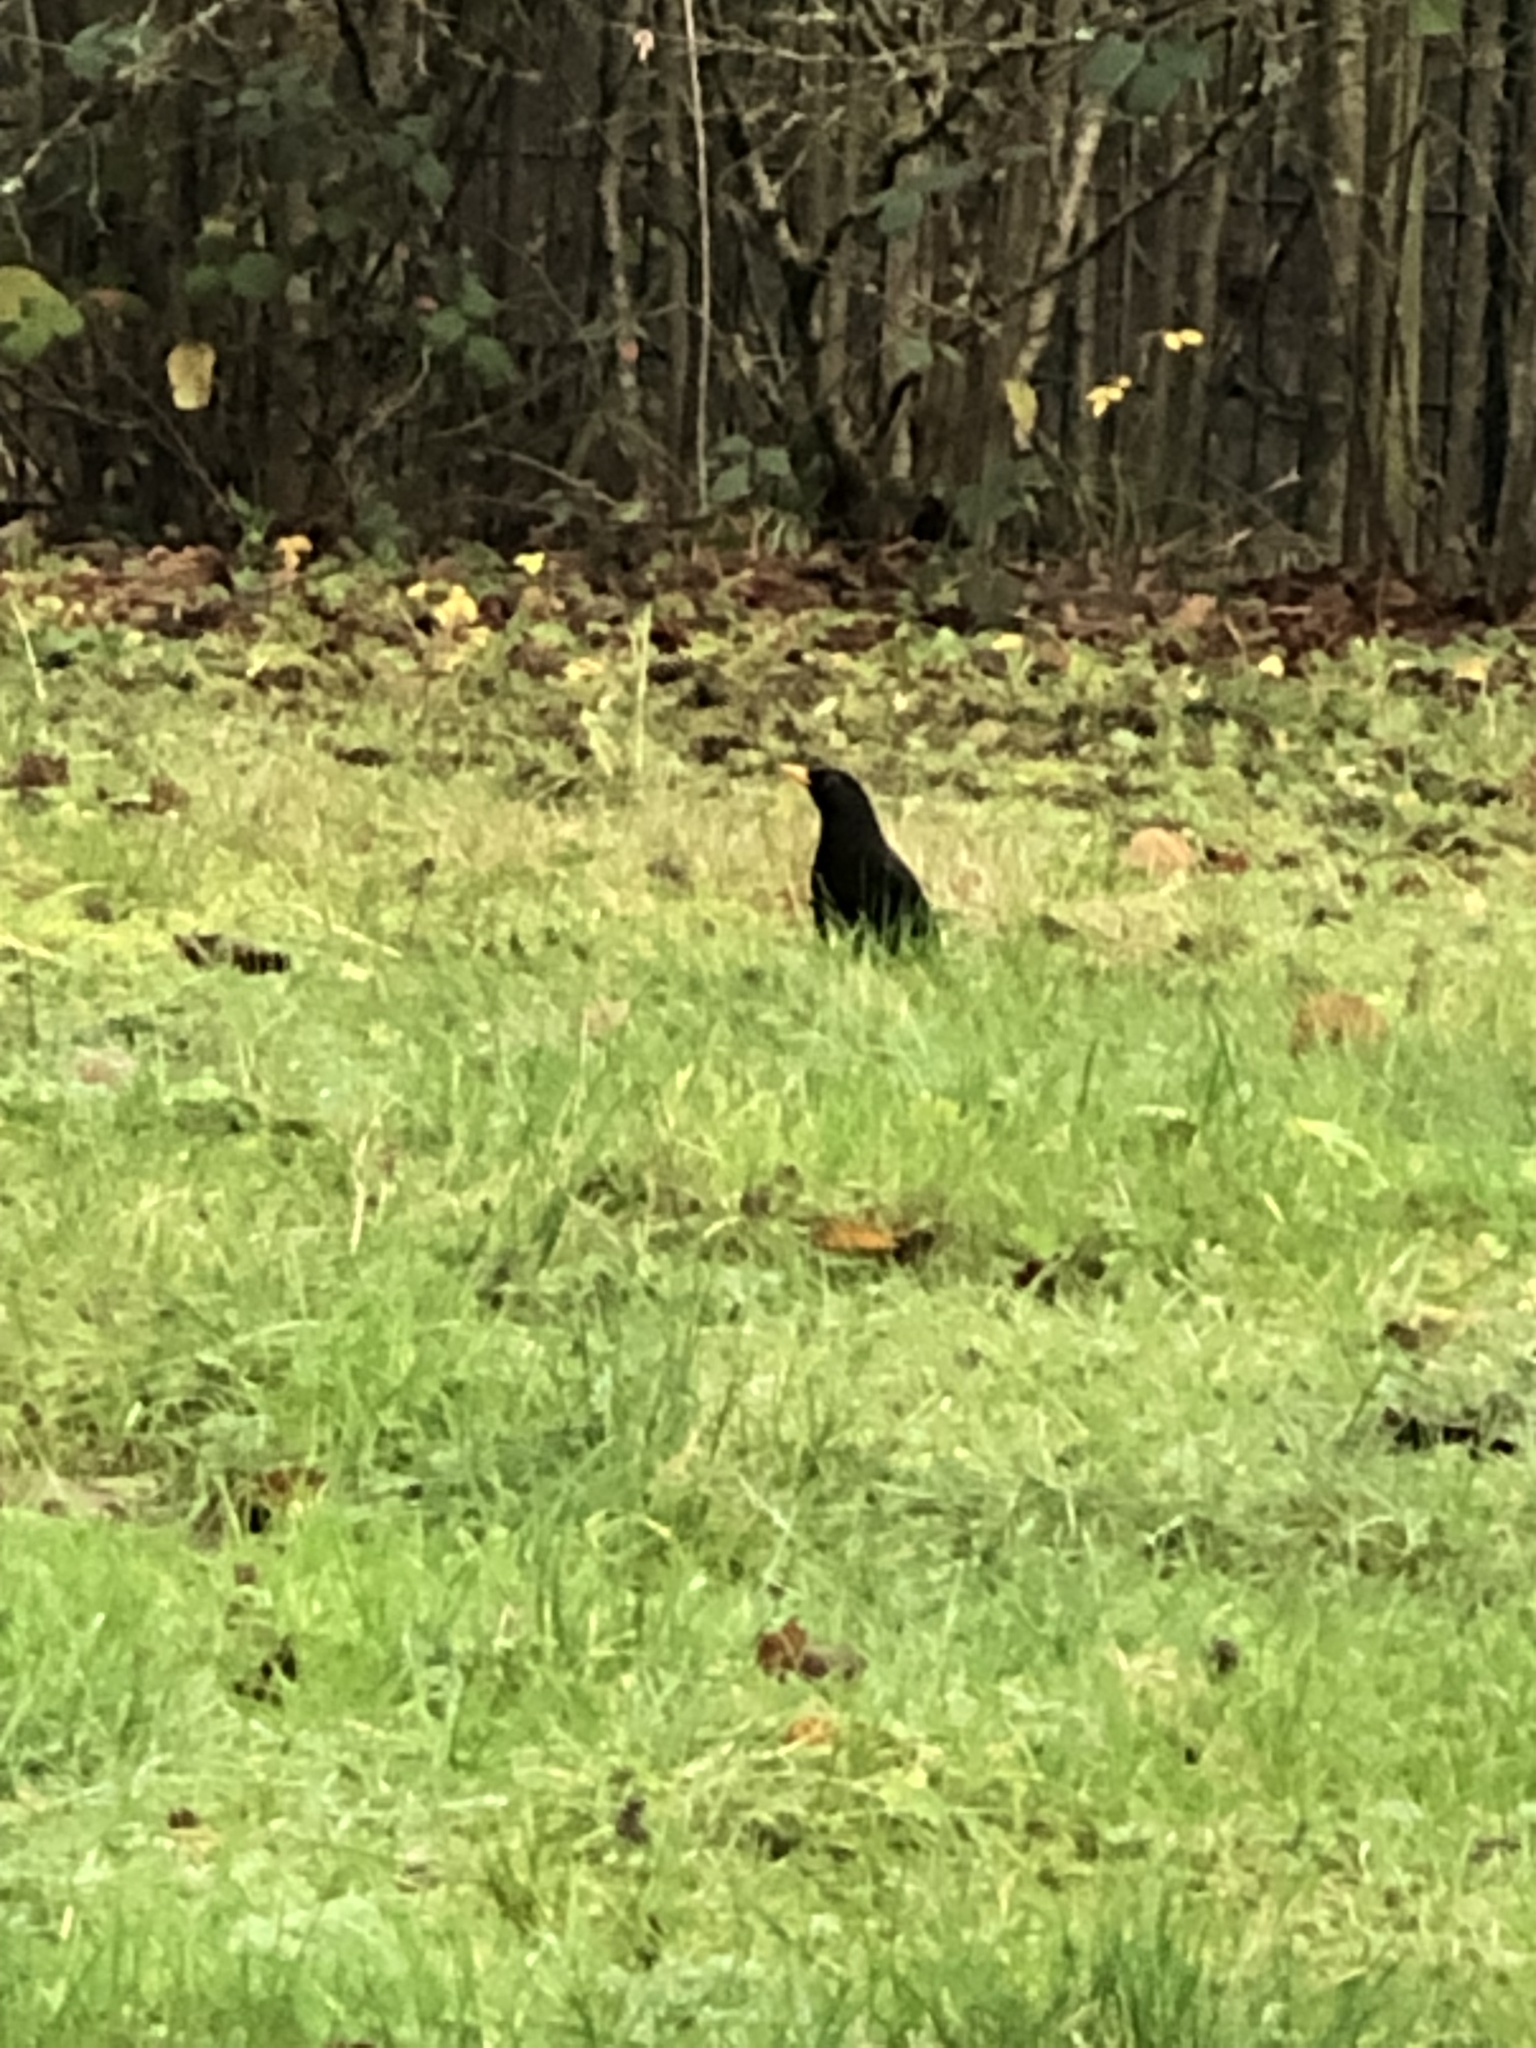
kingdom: Animalia
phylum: Chordata
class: Aves
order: Passeriformes
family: Turdidae
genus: Turdus
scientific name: Turdus merula
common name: Common blackbird
